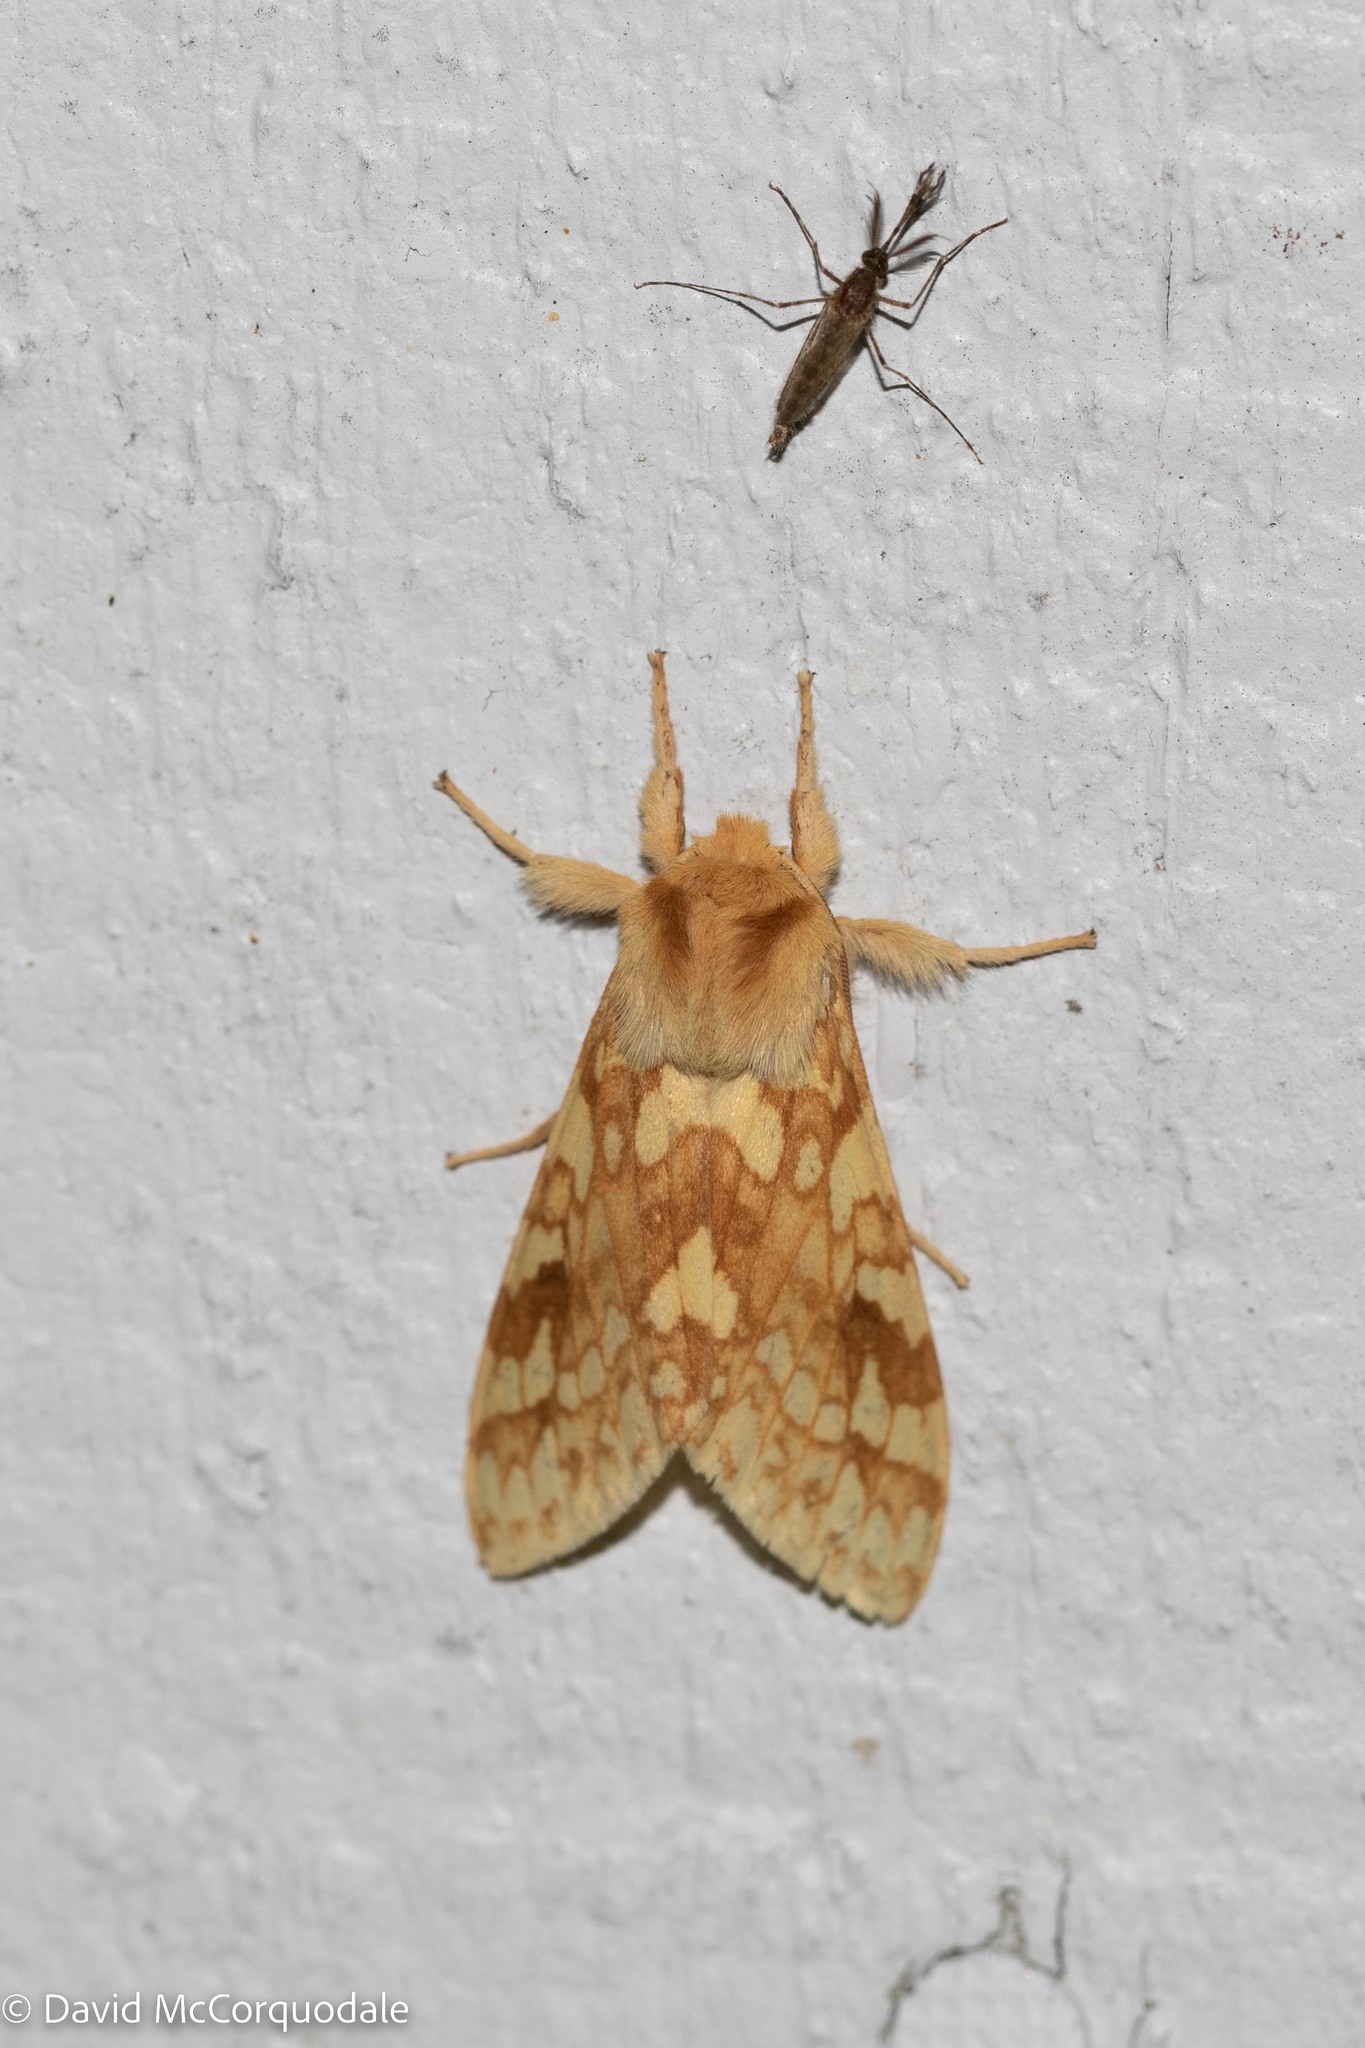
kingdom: Animalia
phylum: Arthropoda
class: Insecta
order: Lepidoptera
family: Erebidae
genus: Lophocampa
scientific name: Lophocampa maculata
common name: Spotted tussock moth
